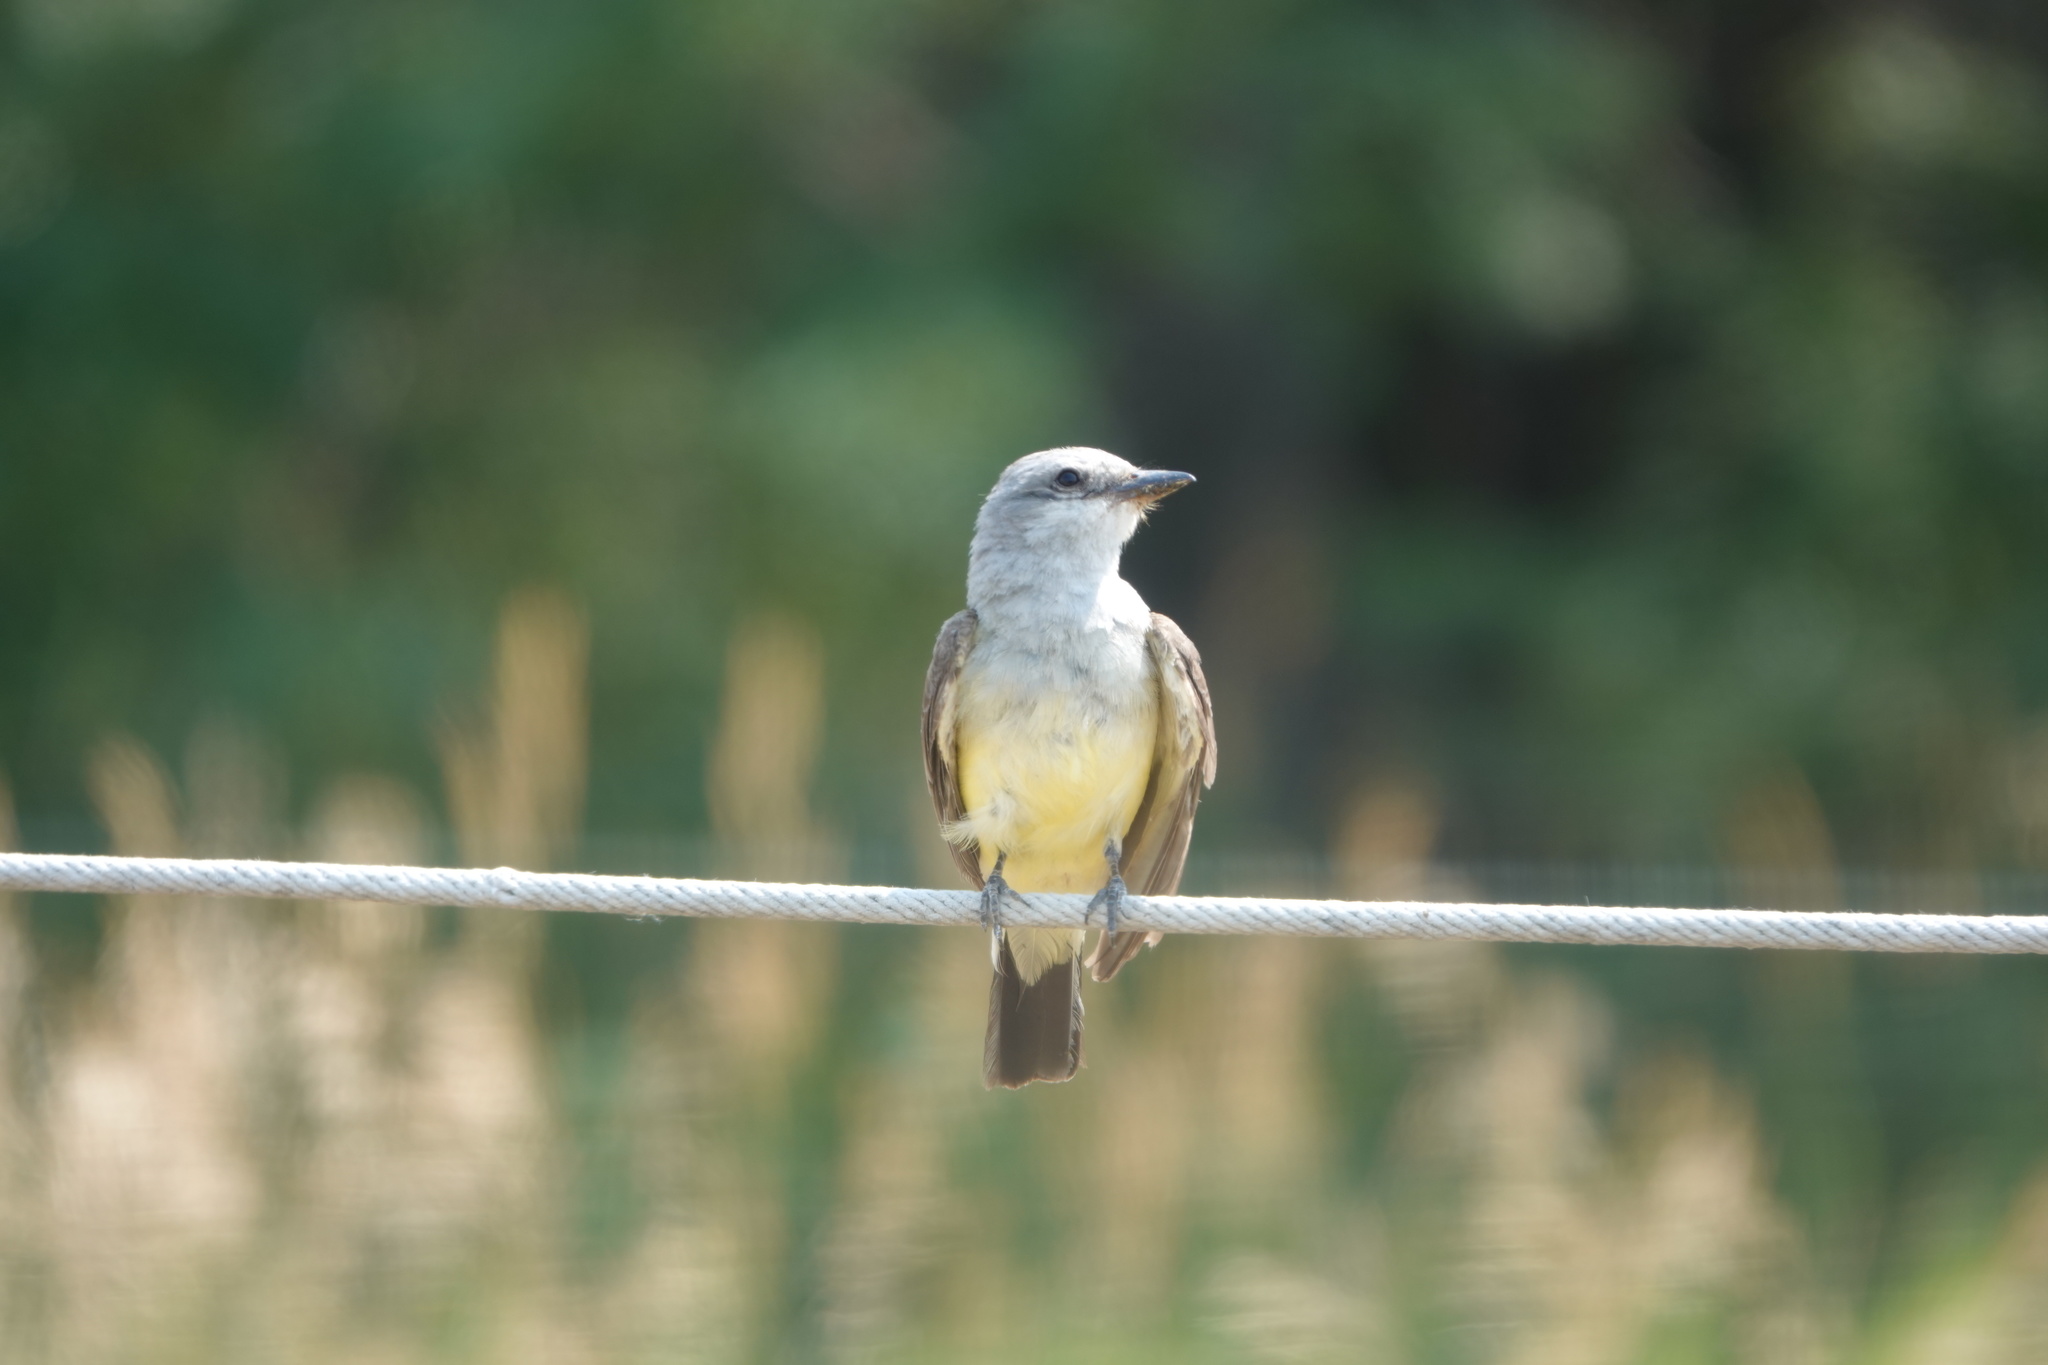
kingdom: Animalia
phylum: Chordata
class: Aves
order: Passeriformes
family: Tyrannidae
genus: Tyrannus
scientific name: Tyrannus verticalis
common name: Western kingbird
